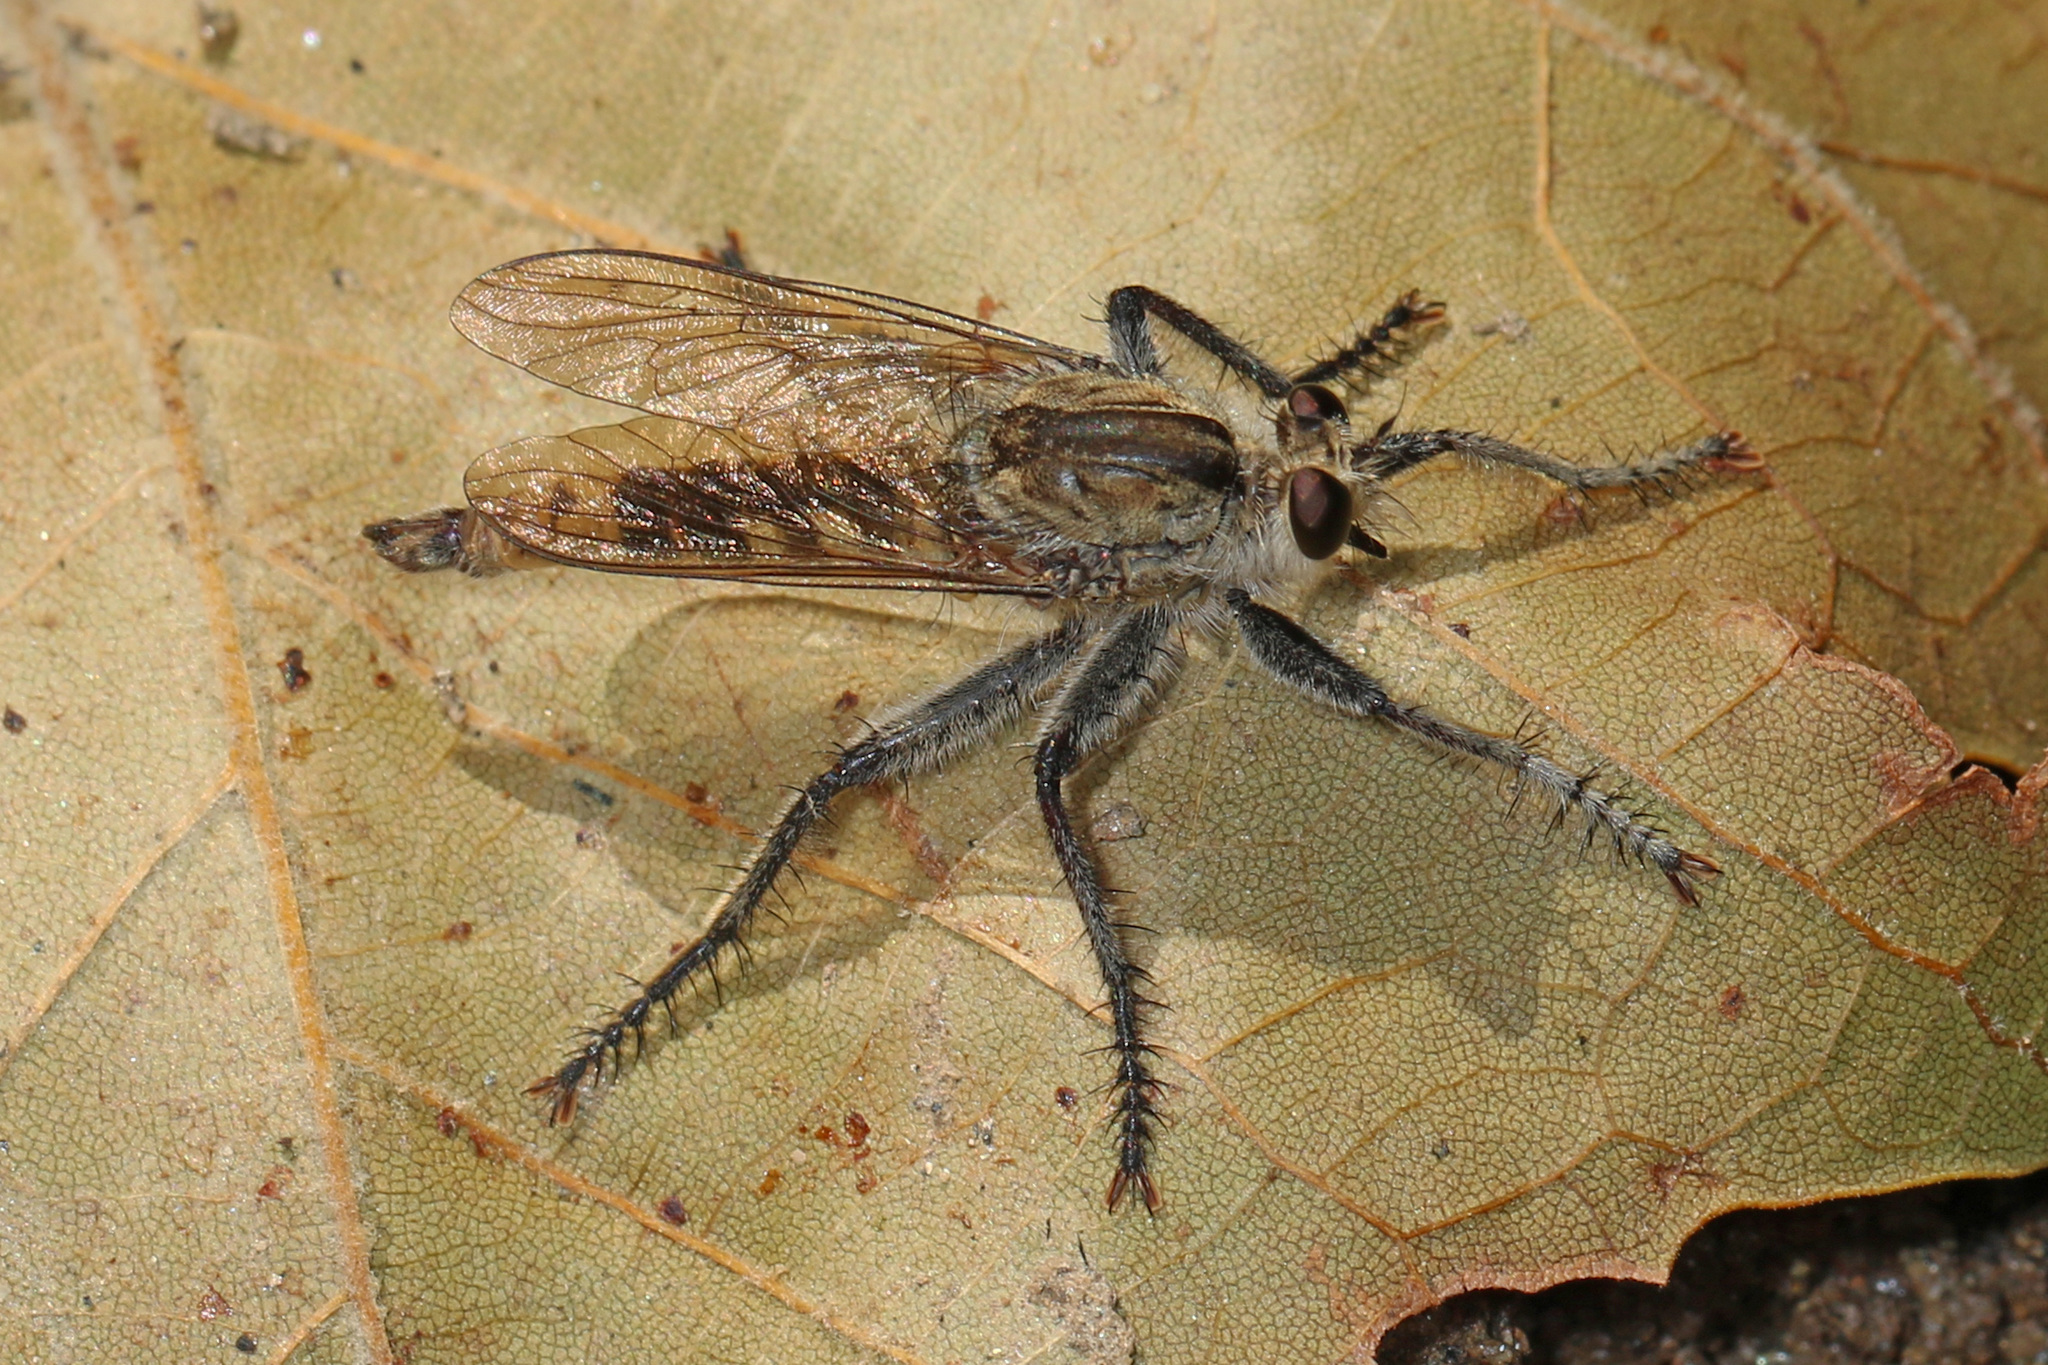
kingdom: Animalia
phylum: Arthropoda
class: Insecta
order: Diptera
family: Asilidae
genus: Triorla
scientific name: Triorla interrupta
